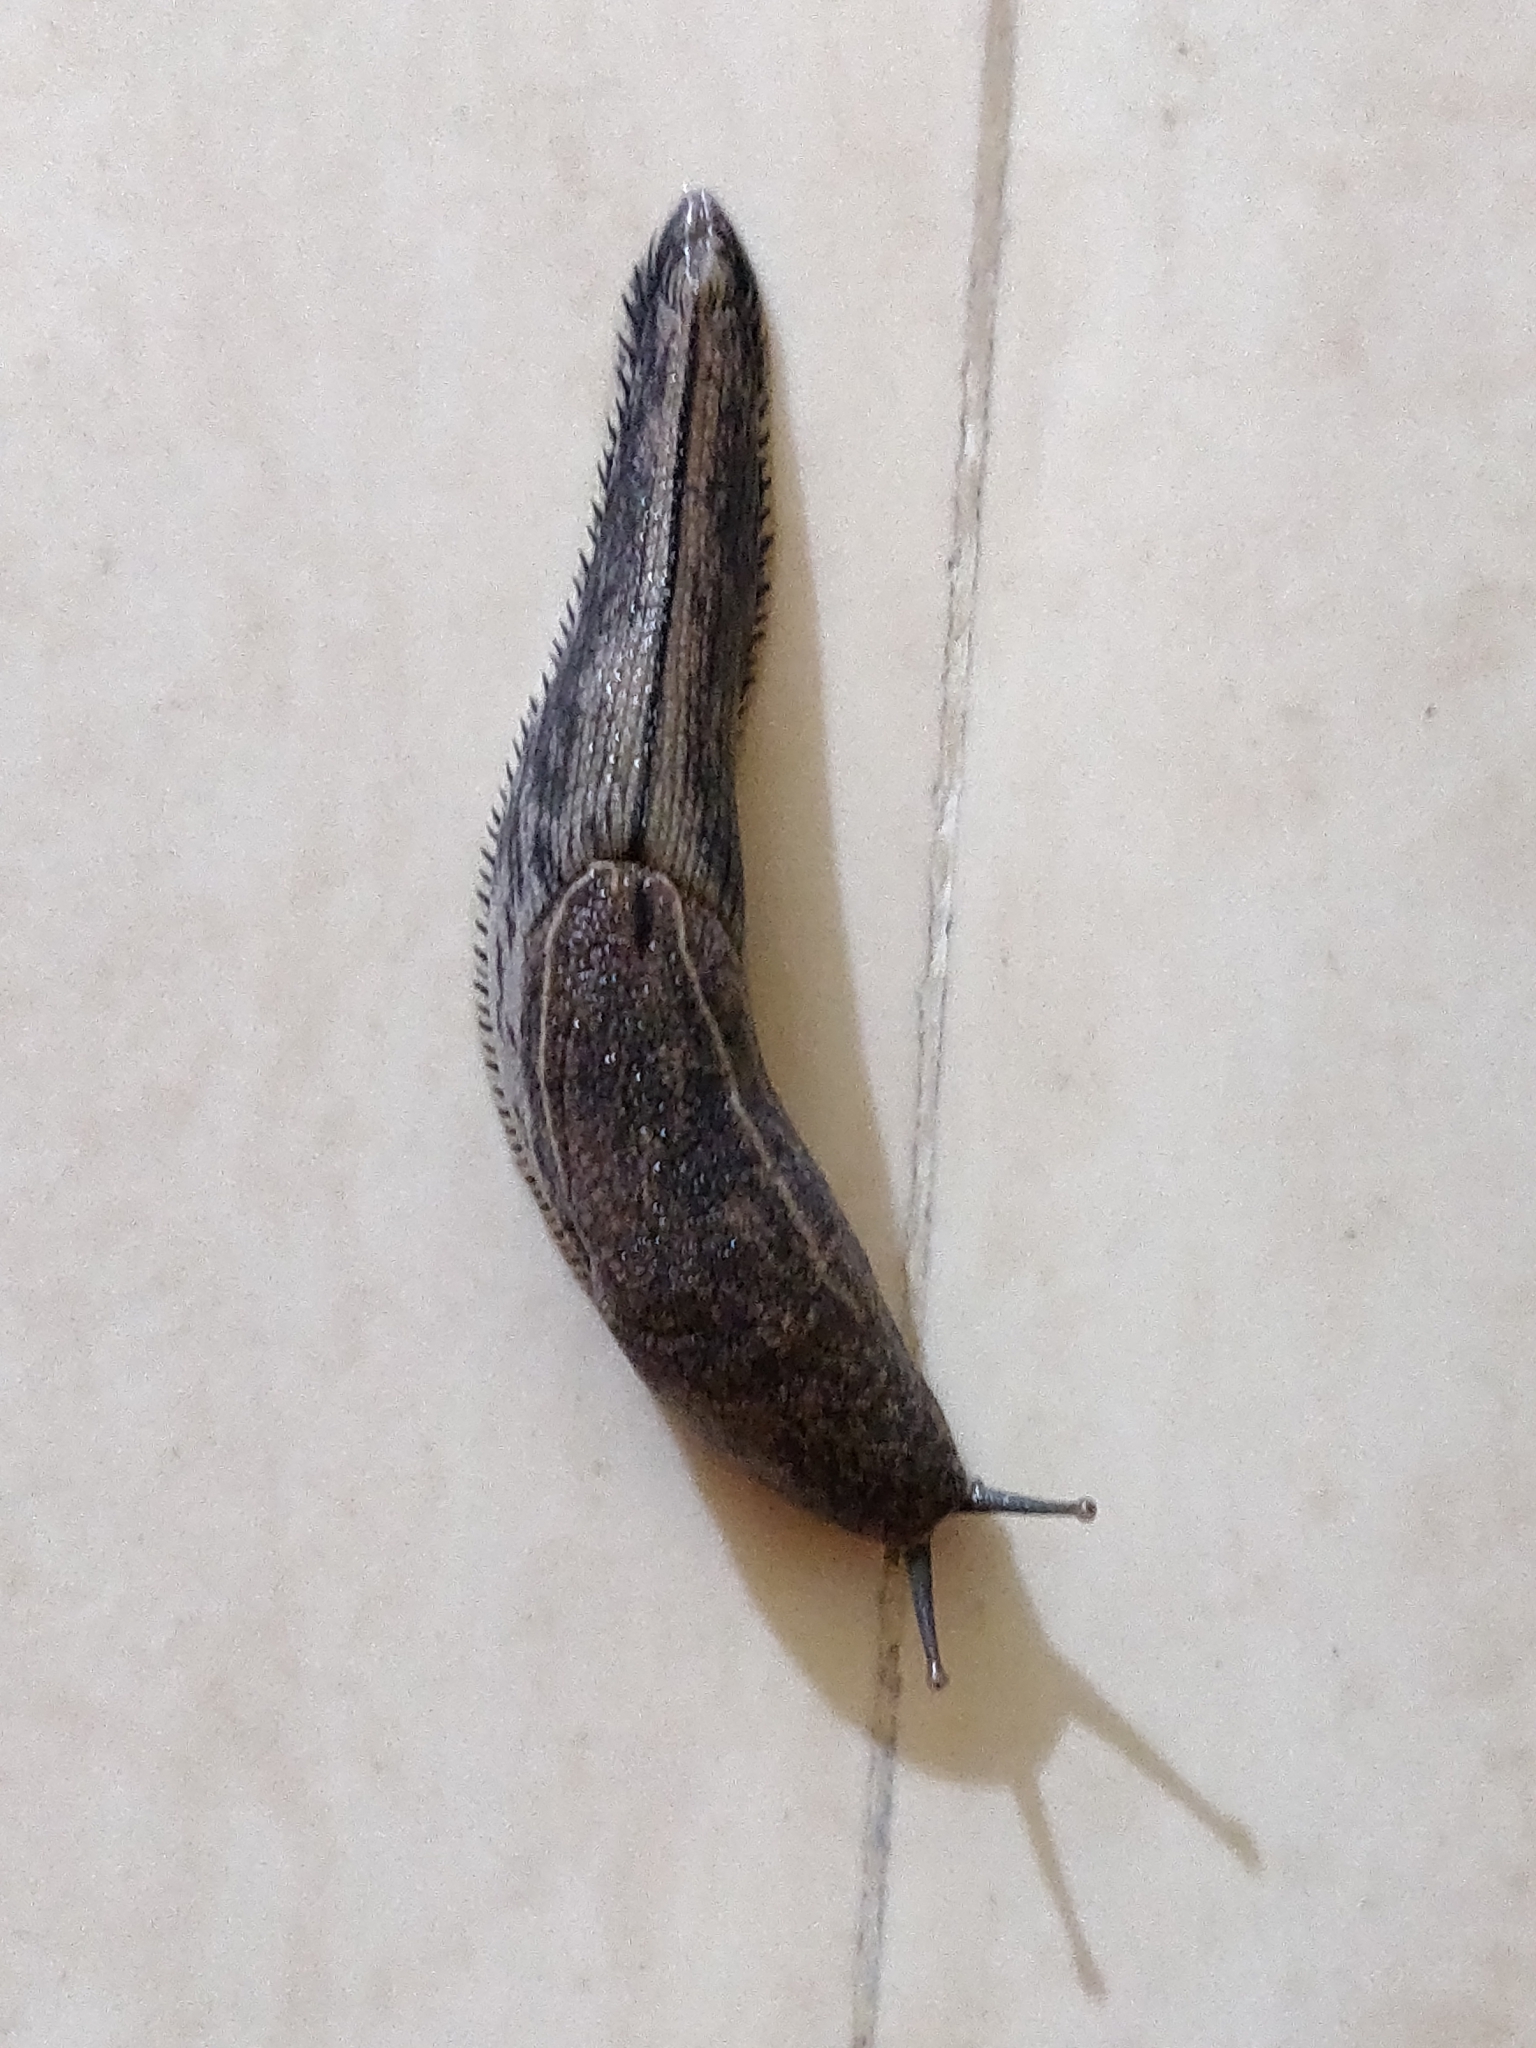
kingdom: Animalia
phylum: Mollusca
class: Gastropoda
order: Stylommatophora
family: Ariophantidae
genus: Mariaella
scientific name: Mariaella dussumieri
